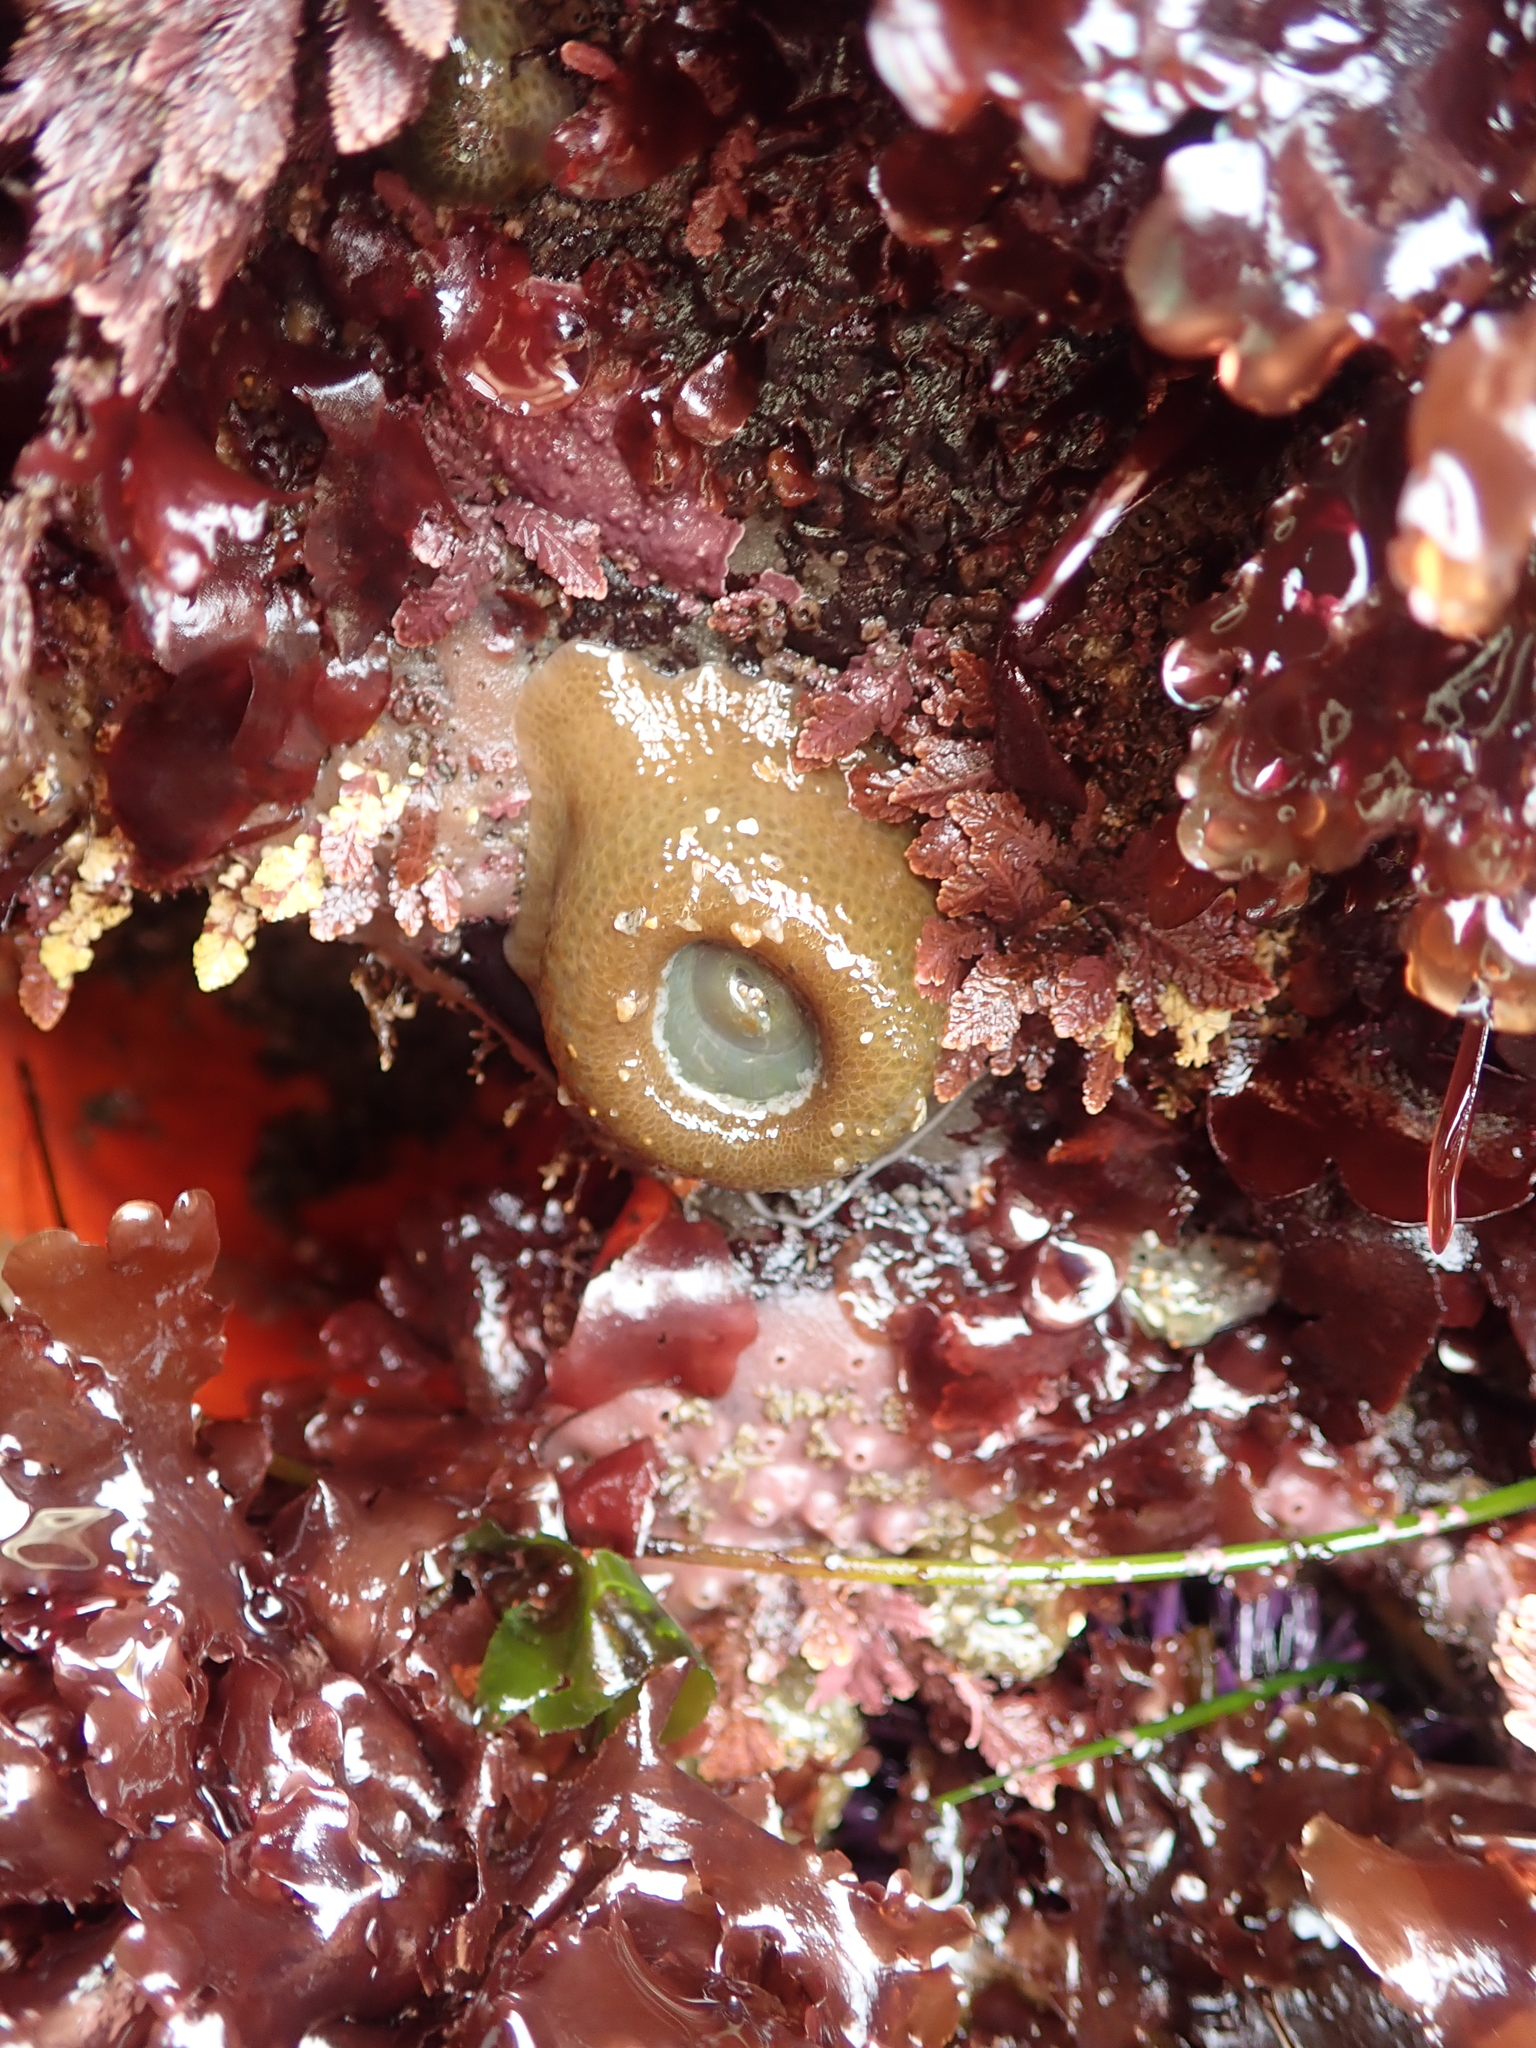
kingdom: Animalia
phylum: Cnidaria
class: Anthozoa
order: Actiniaria
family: Actiniidae
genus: Anthopleura
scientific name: Anthopleura xanthogrammica
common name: Giant green anemone
